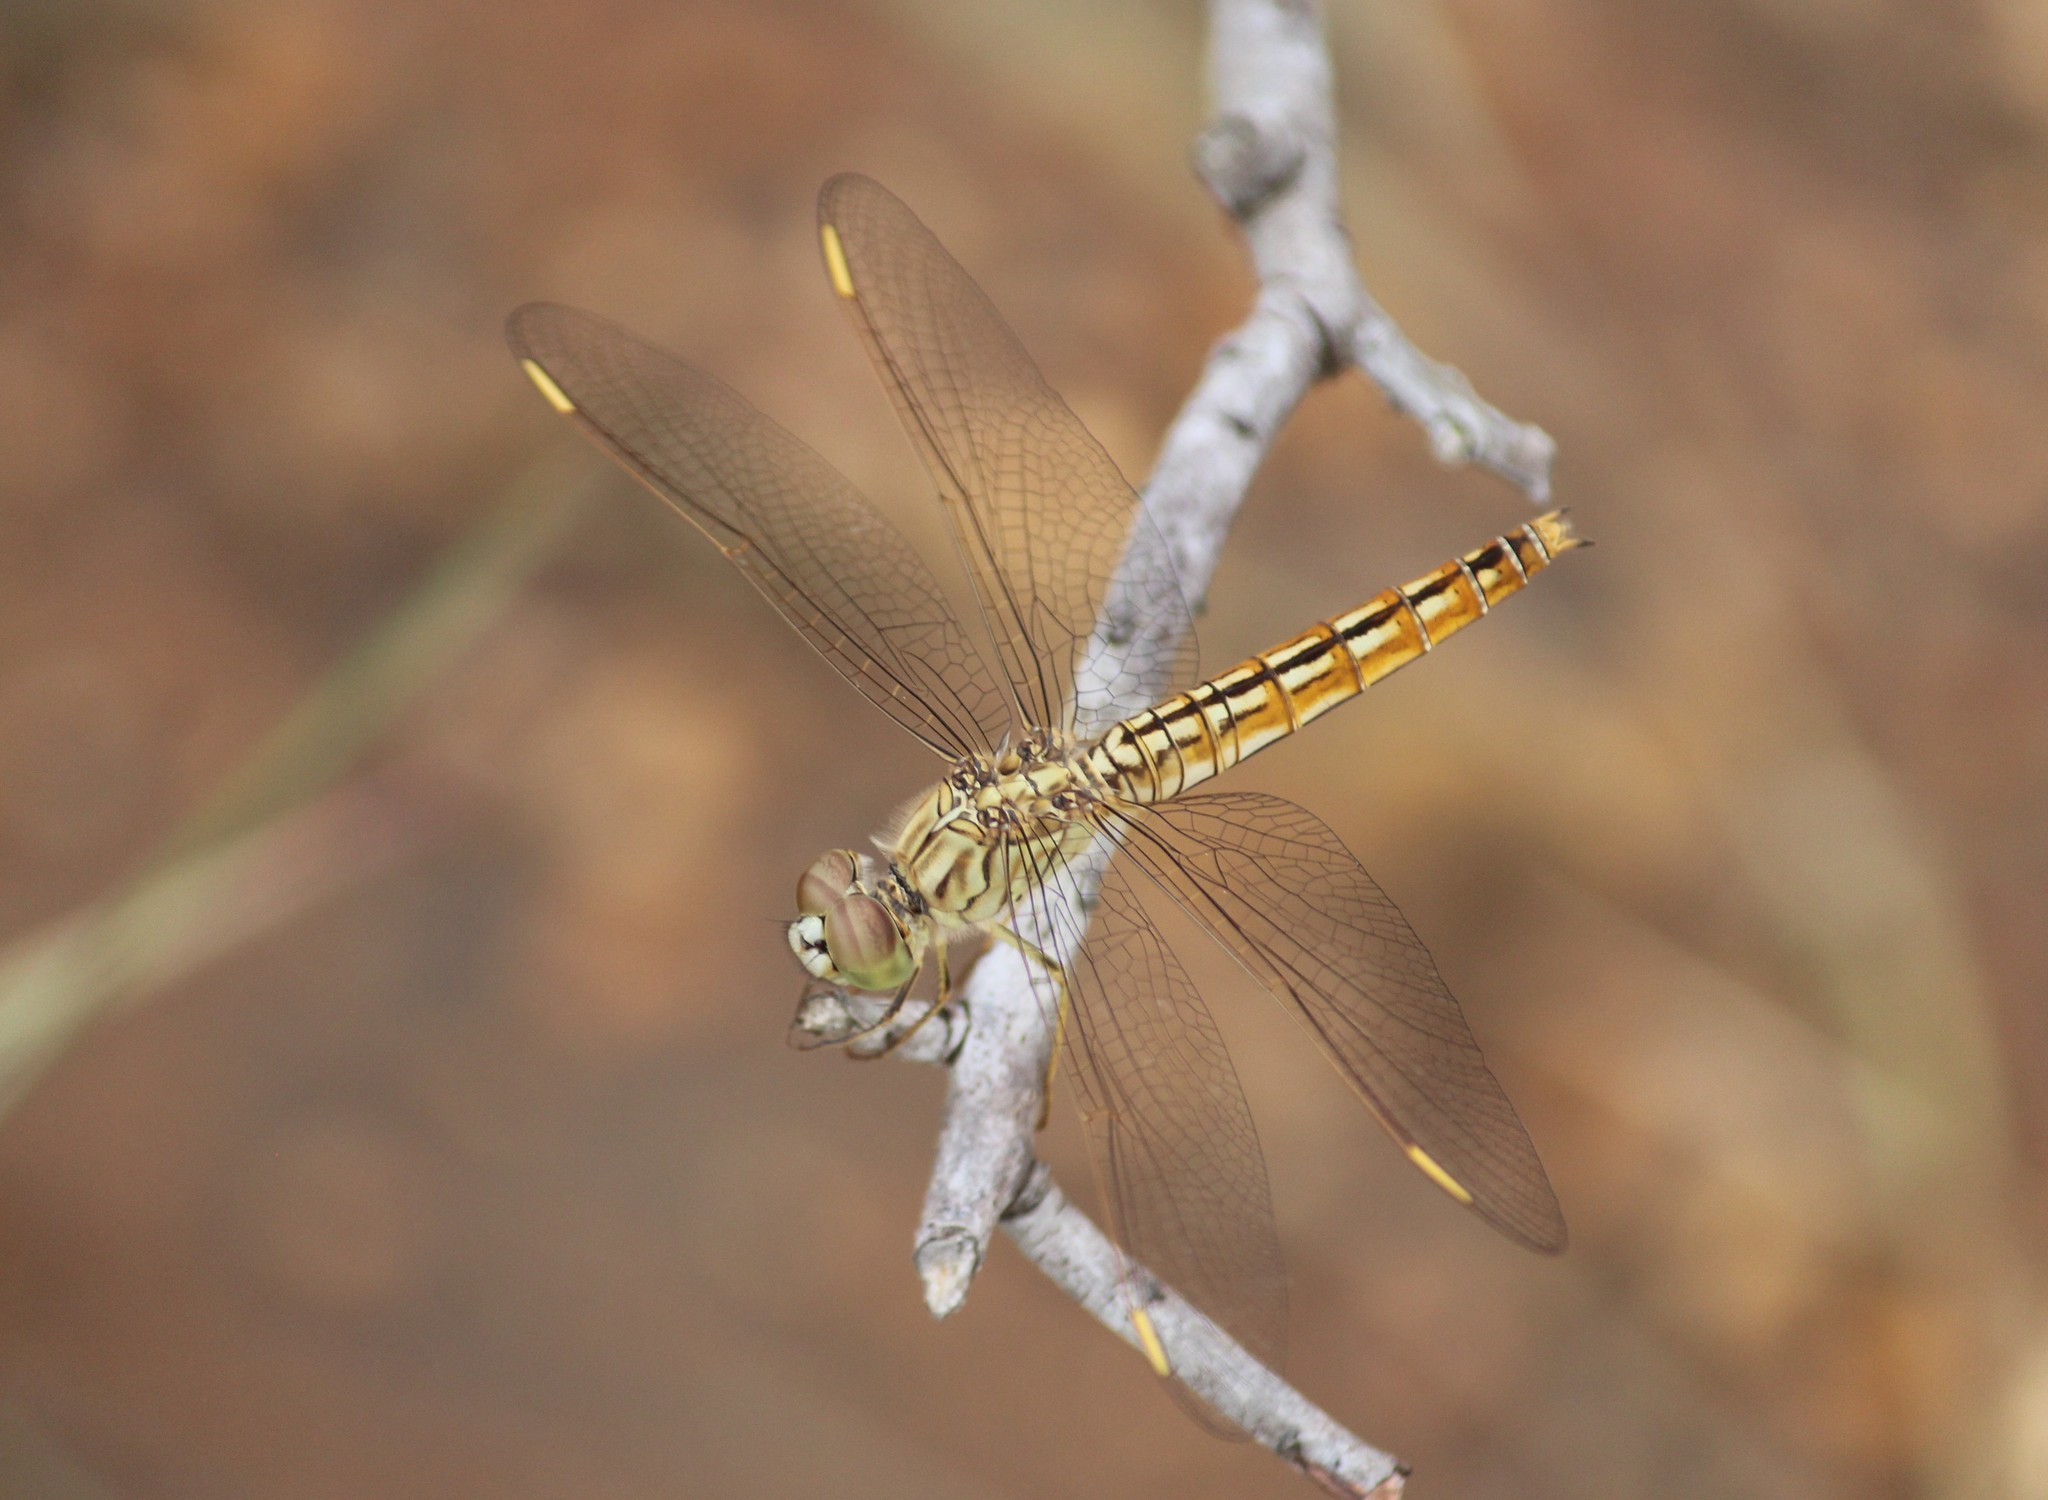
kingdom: Animalia
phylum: Arthropoda
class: Insecta
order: Odonata
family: Libellulidae
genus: Brachythemis
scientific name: Brachythemis contaminata
